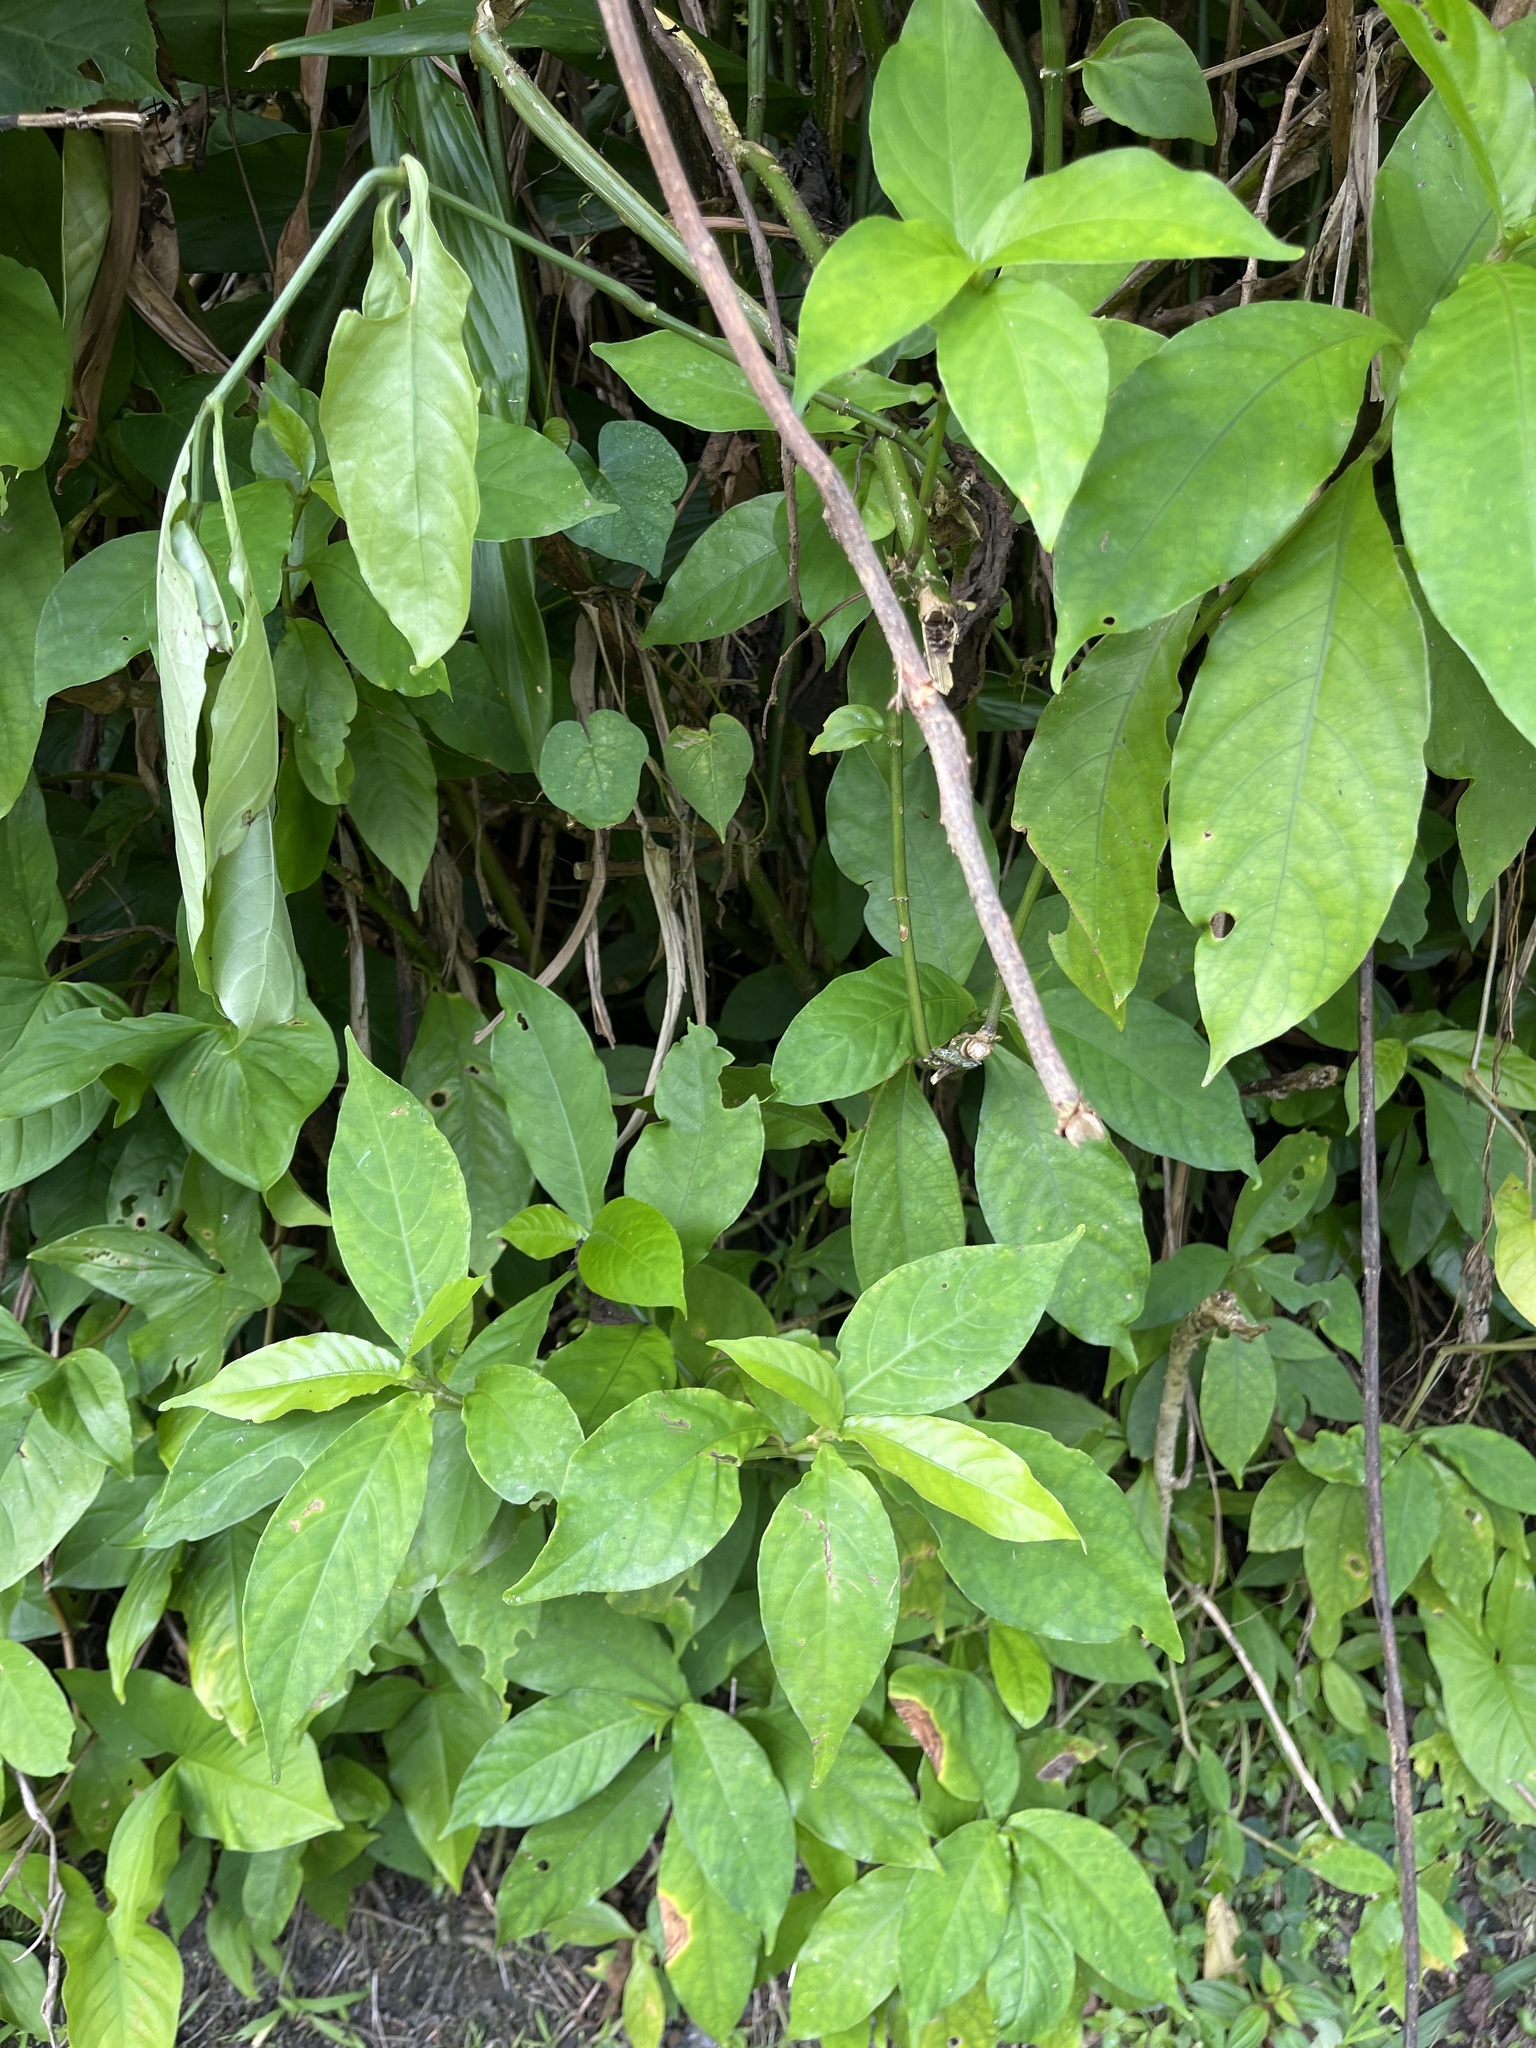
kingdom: Plantae
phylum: Tracheophyta
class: Magnoliopsida
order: Lamiales
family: Acanthaceae
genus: Odontonema
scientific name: Odontonema cuspidatum
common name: Mottled toothedthread
